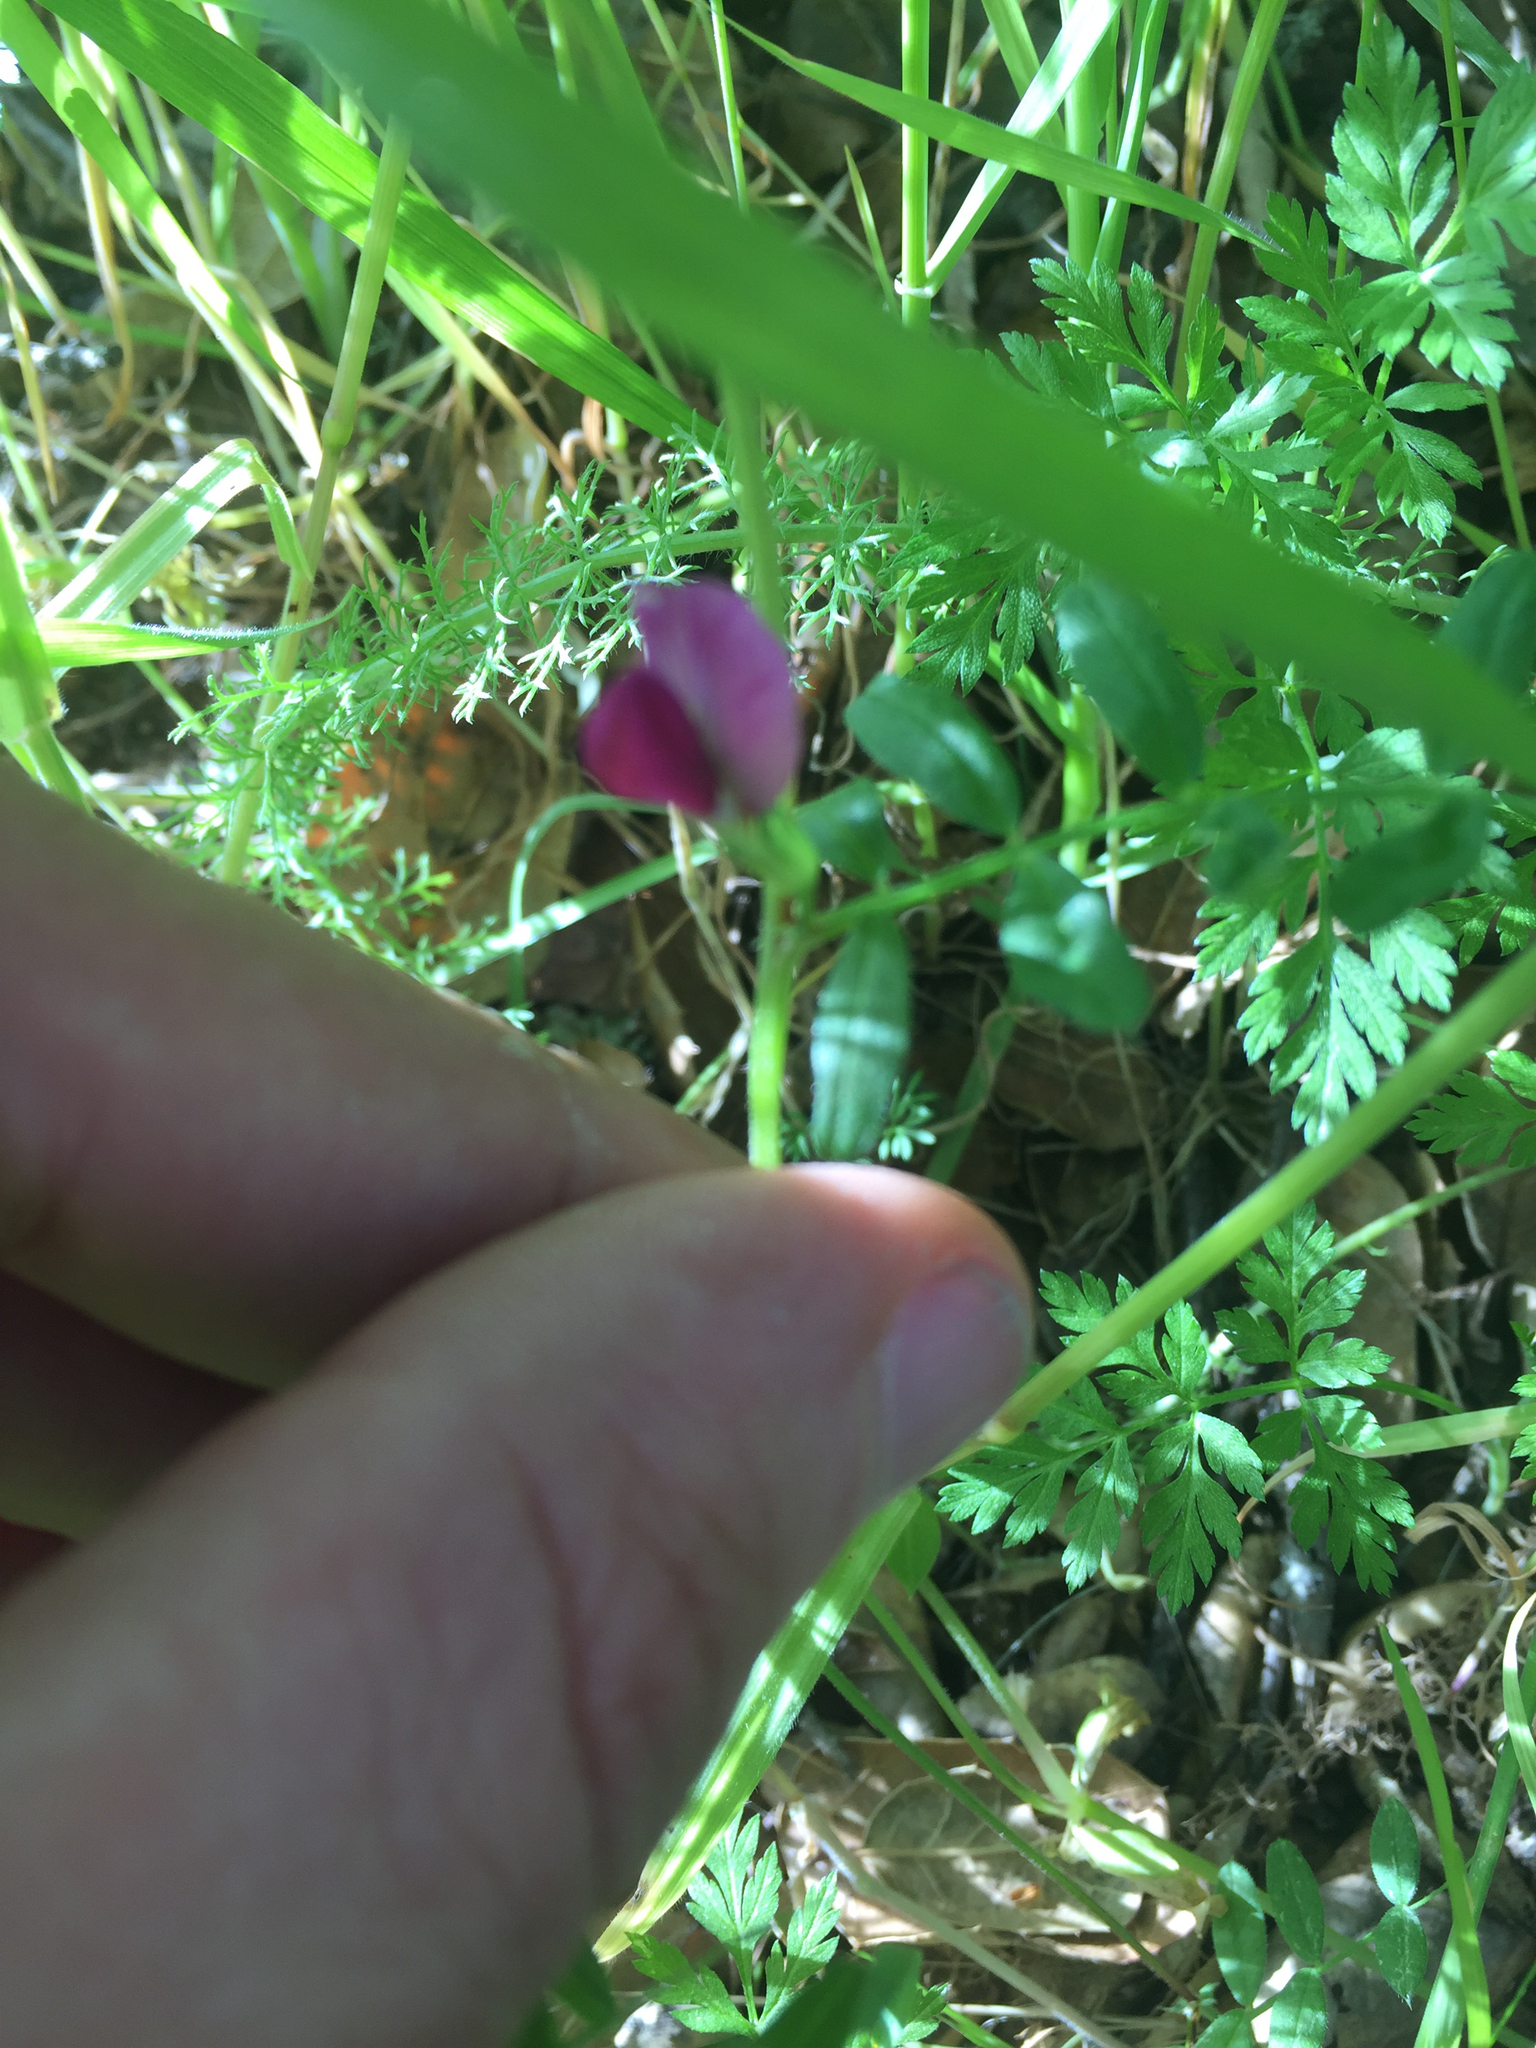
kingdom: Plantae
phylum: Tracheophyta
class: Magnoliopsida
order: Fabales
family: Fabaceae
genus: Vicia
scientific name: Vicia sativa
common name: Garden vetch
